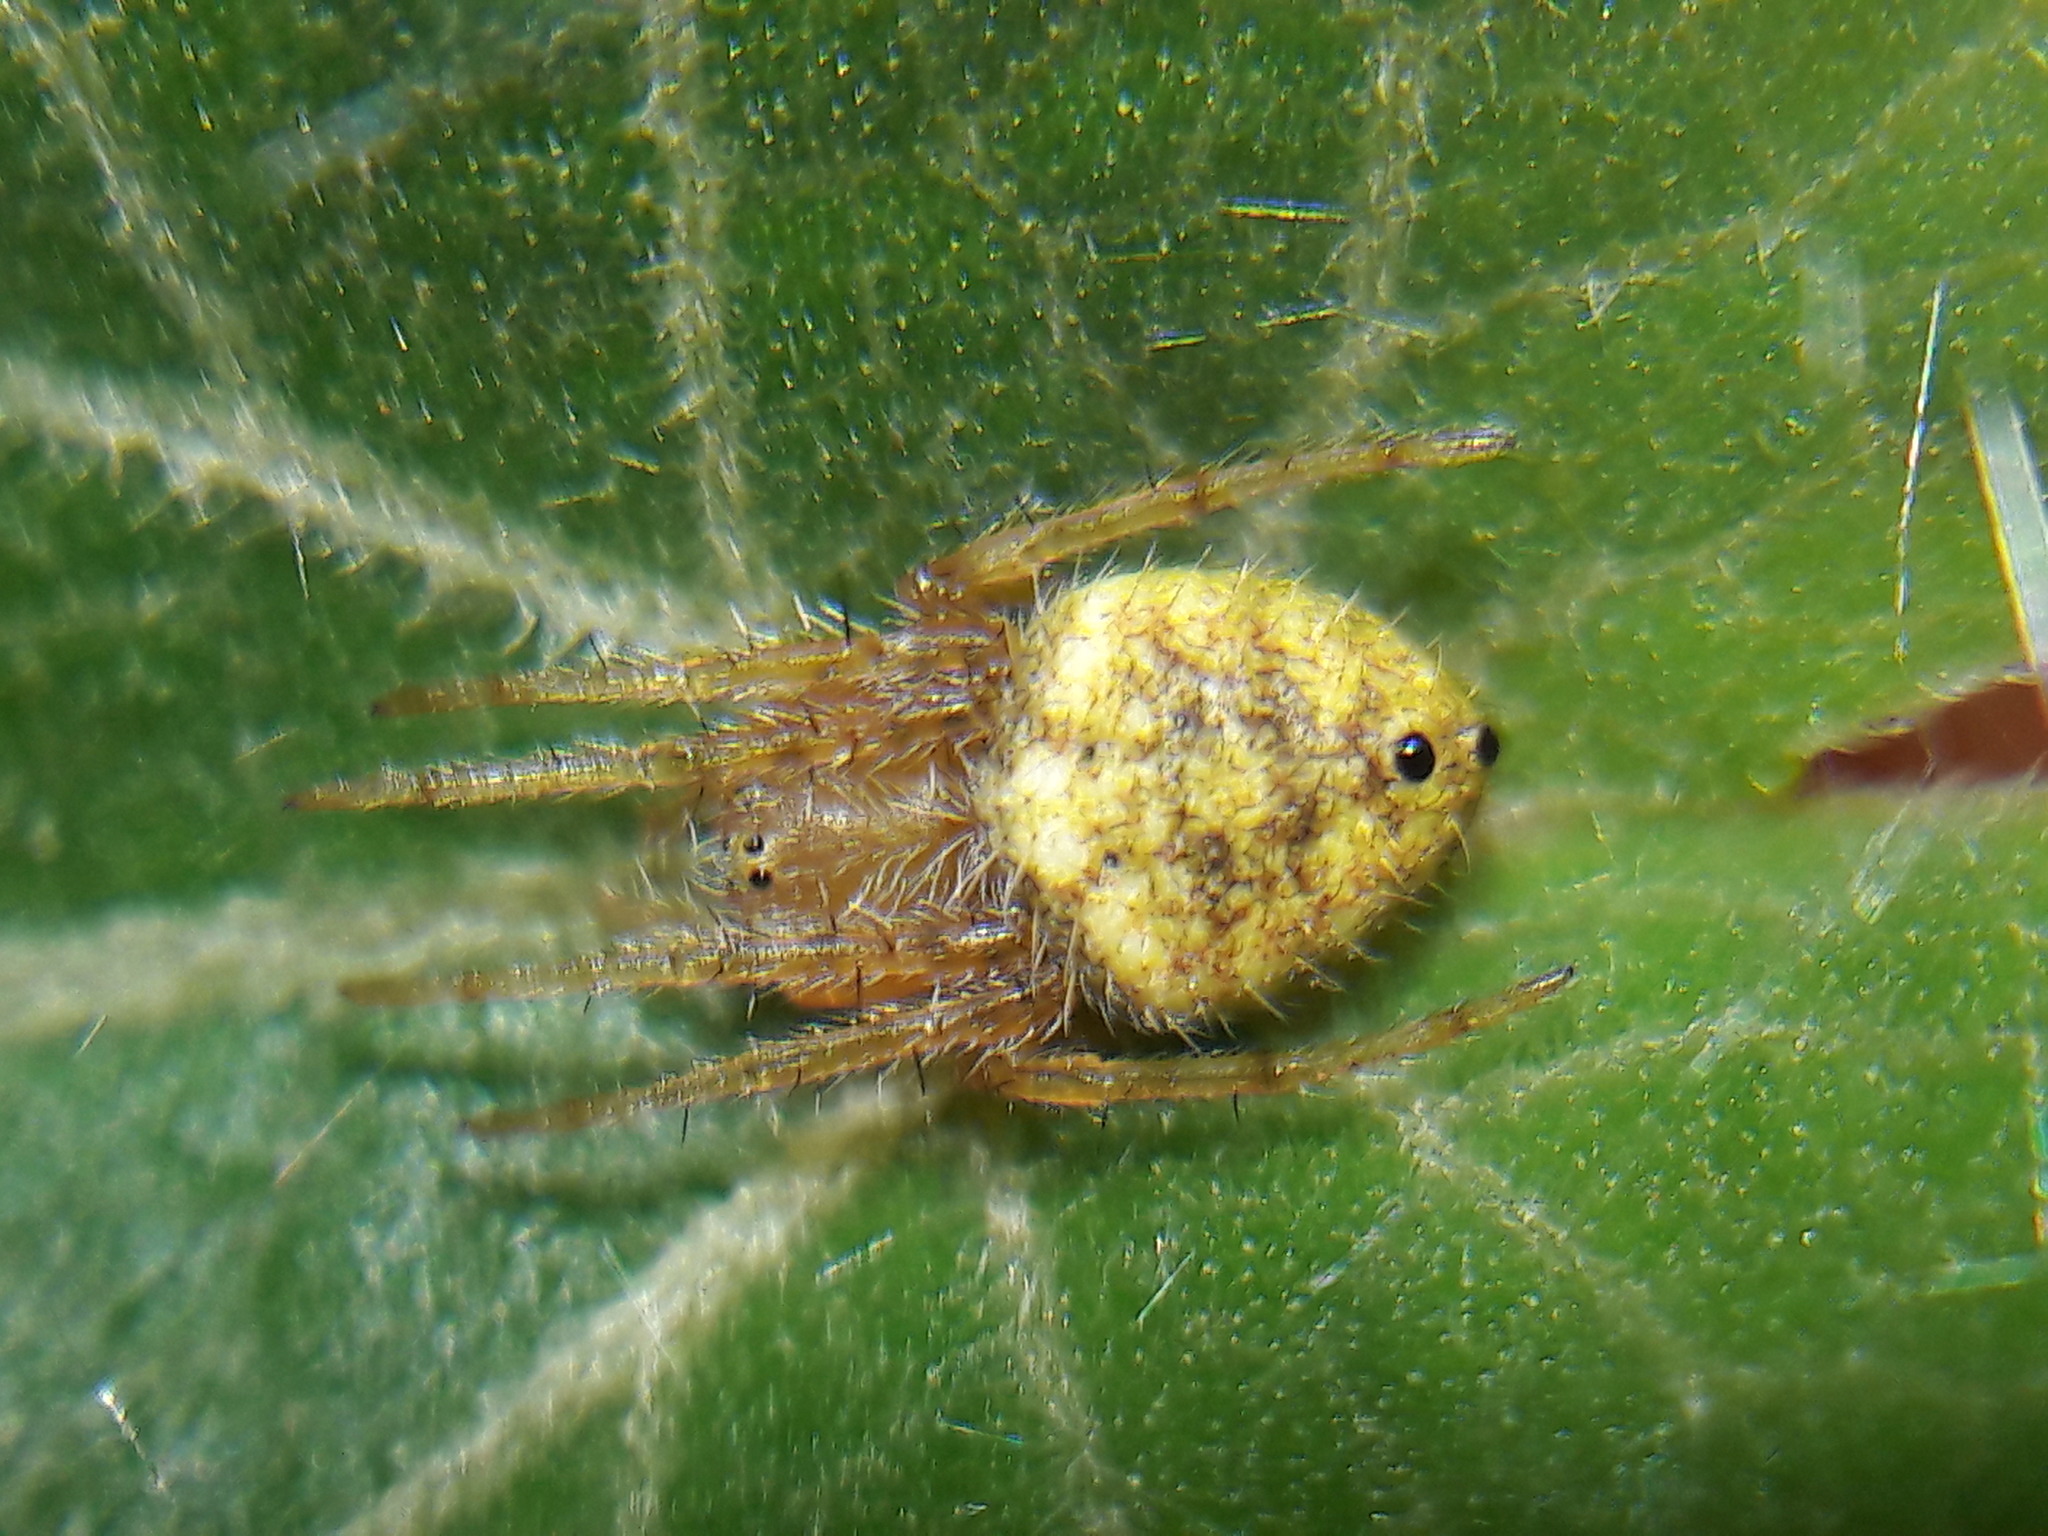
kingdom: Animalia
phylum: Arthropoda
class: Arachnida
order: Araneae
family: Araneidae
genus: Eriophora
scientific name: Eriophora edax
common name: Orb weavers
